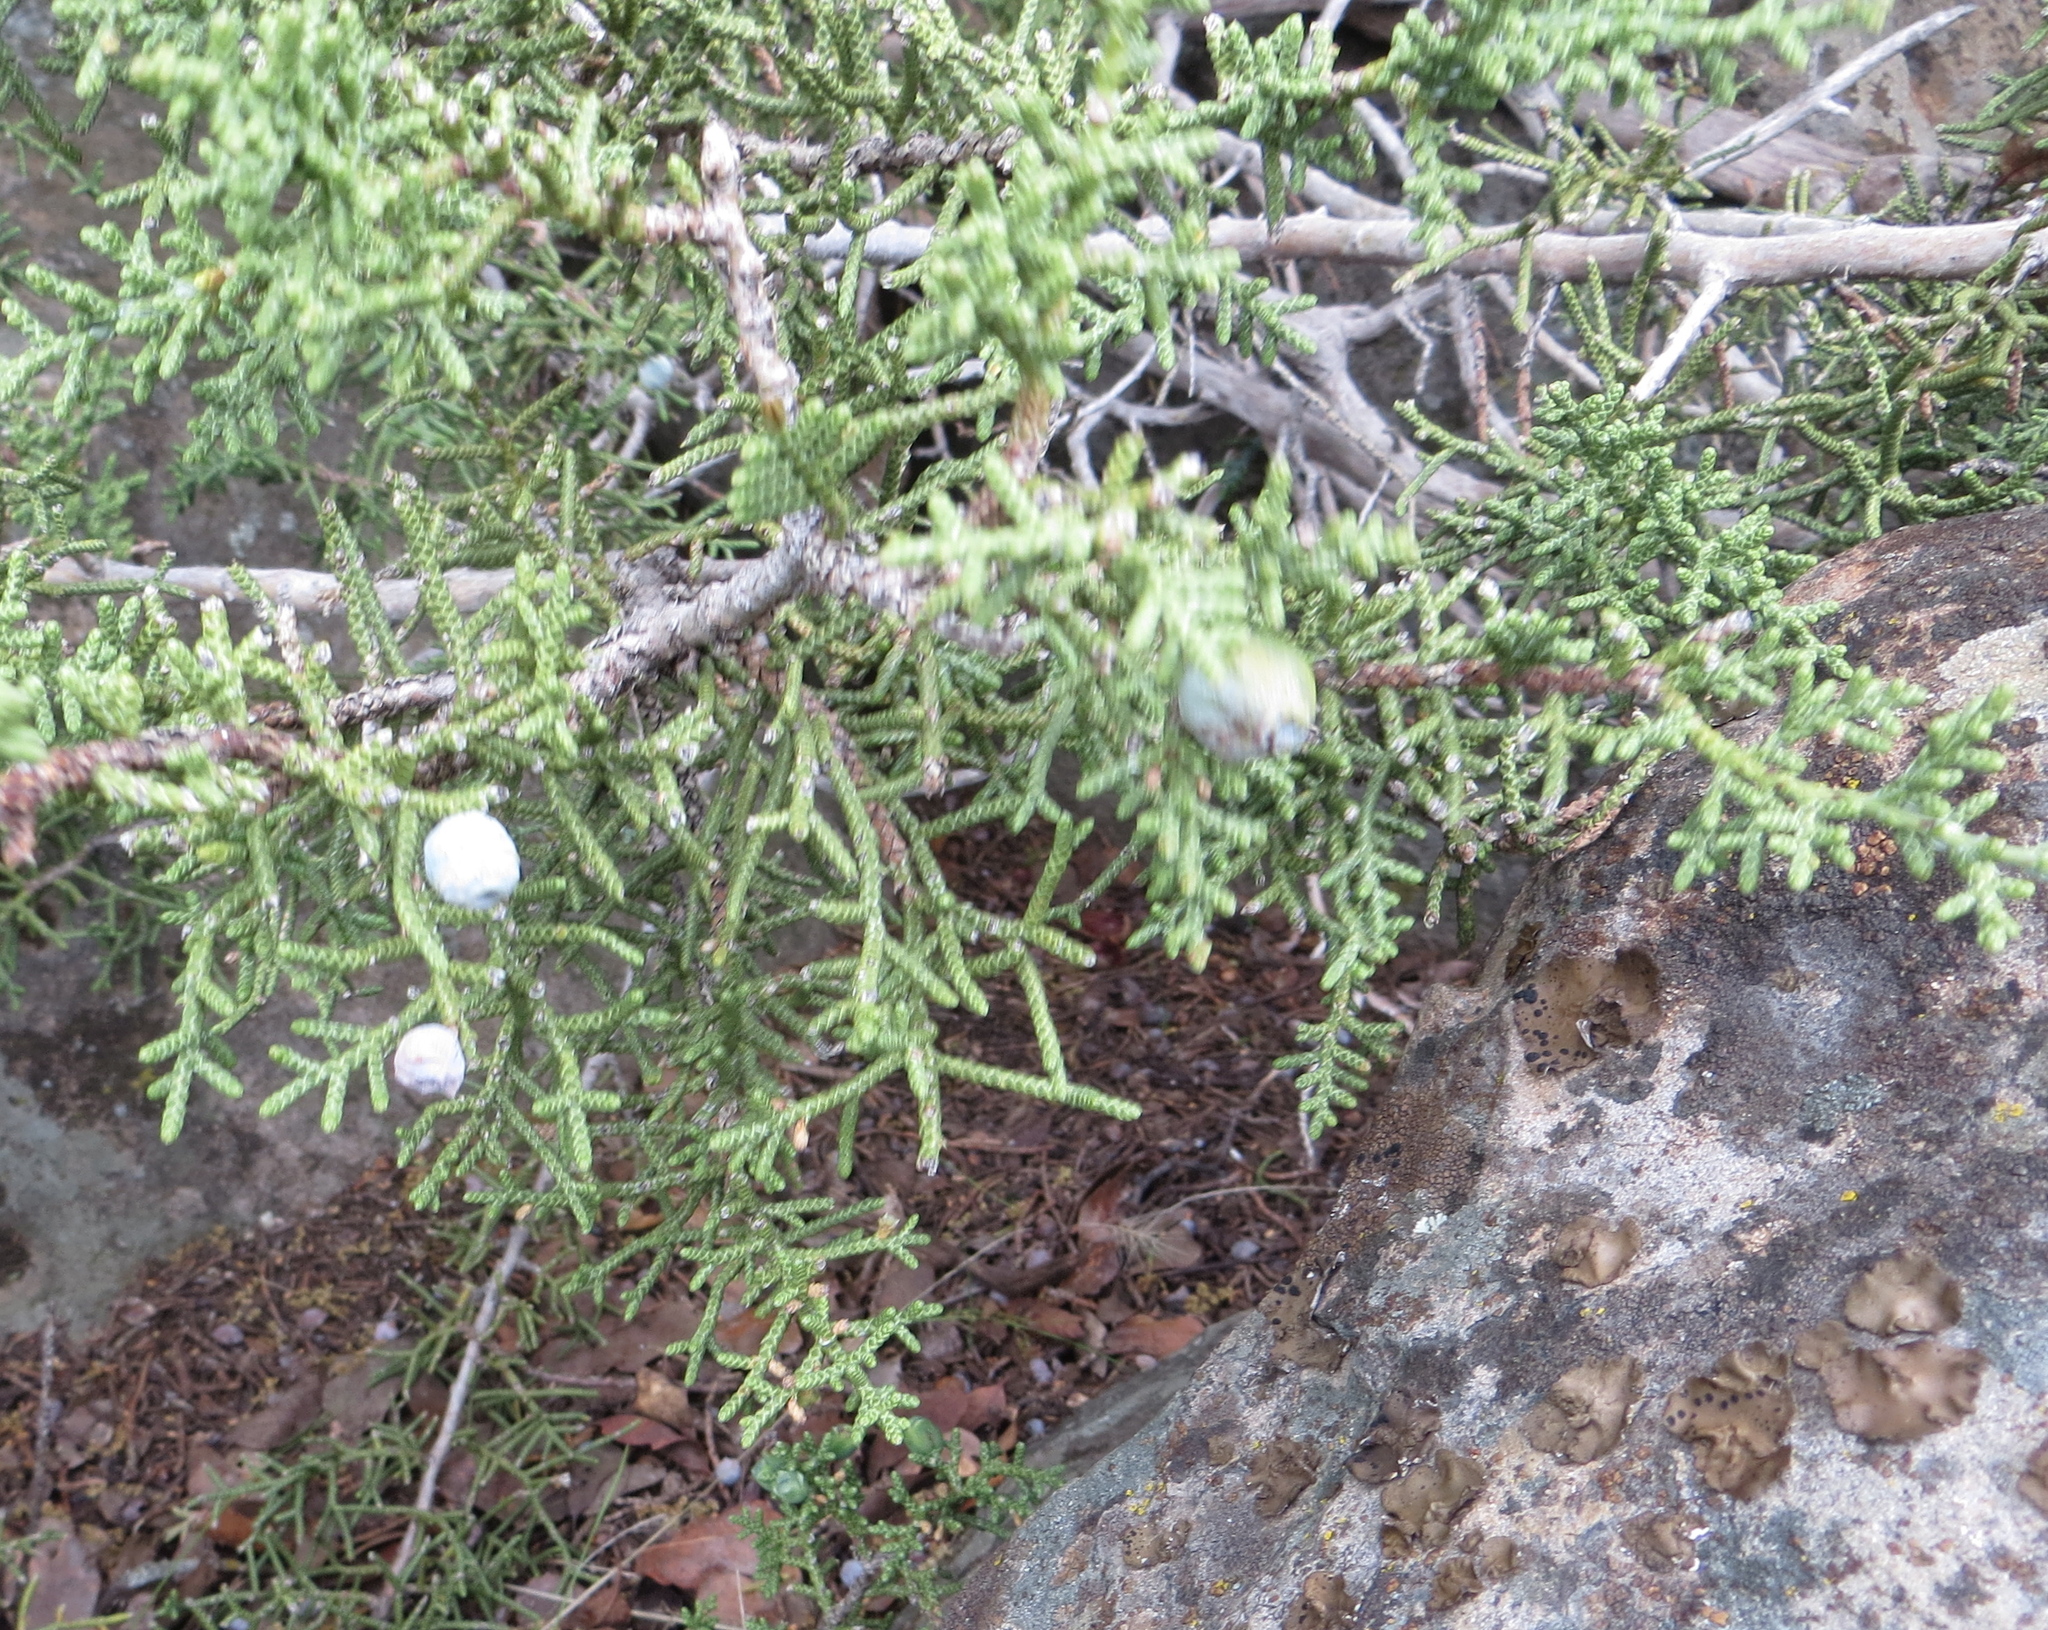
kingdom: Plantae
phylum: Tracheophyta
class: Pinopsida
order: Pinales
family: Cupressaceae
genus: Juniperus
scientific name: Juniperus californica
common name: California juniper
